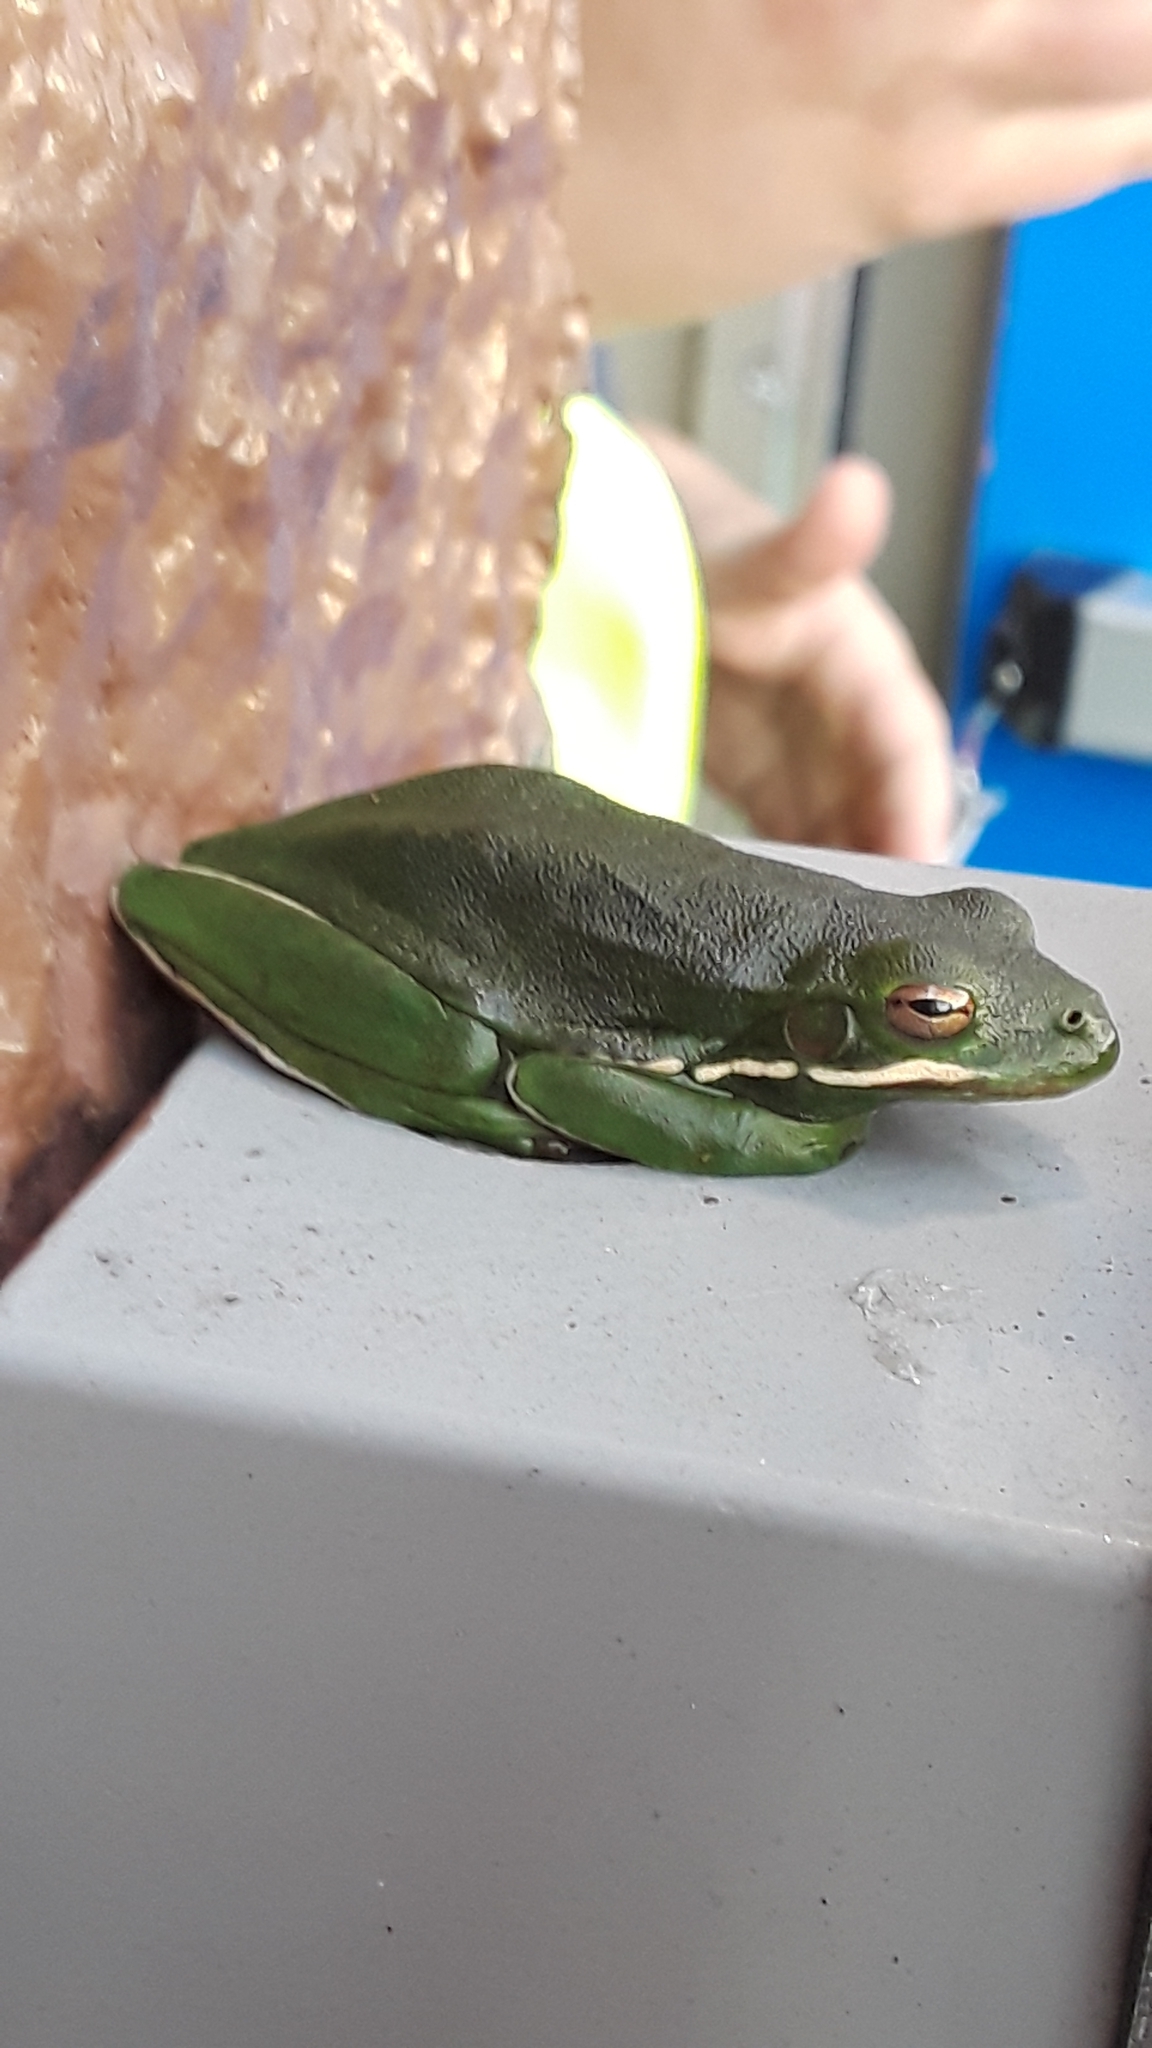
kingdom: Animalia
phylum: Chordata
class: Amphibia
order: Anura
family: Hylidae
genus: Dryophytes
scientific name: Dryophytes cinereus
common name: Green treefrog
